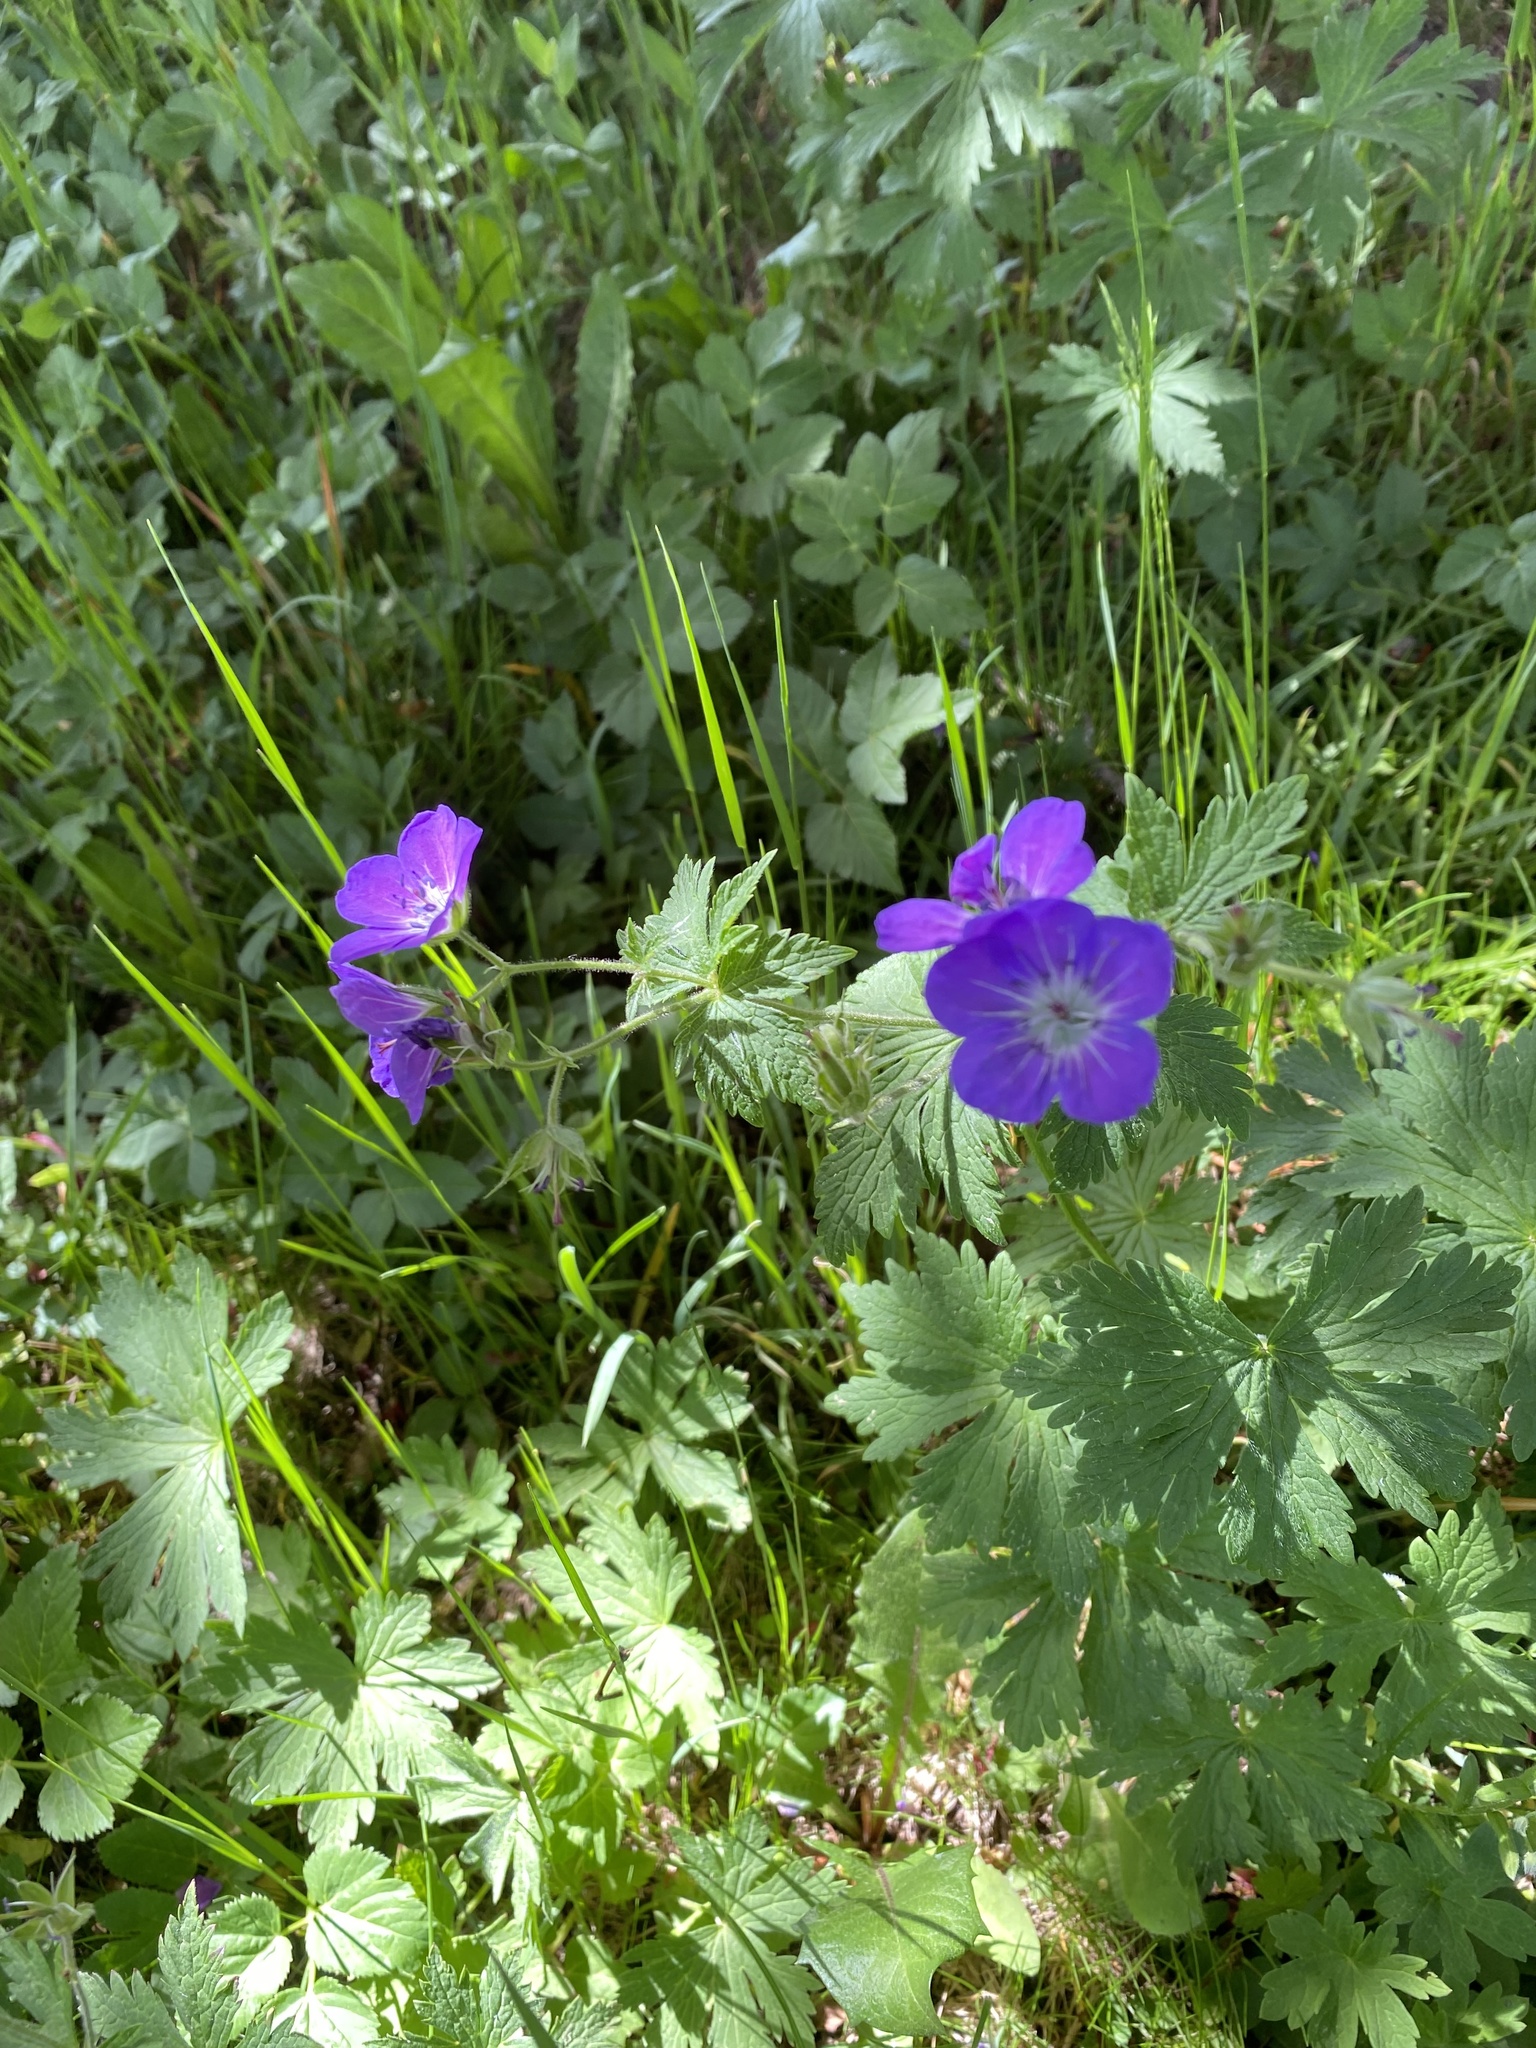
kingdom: Plantae
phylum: Tracheophyta
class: Magnoliopsida
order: Geraniales
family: Geraniaceae
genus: Geranium
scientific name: Geranium sylvaticum
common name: Wood crane's-bill
